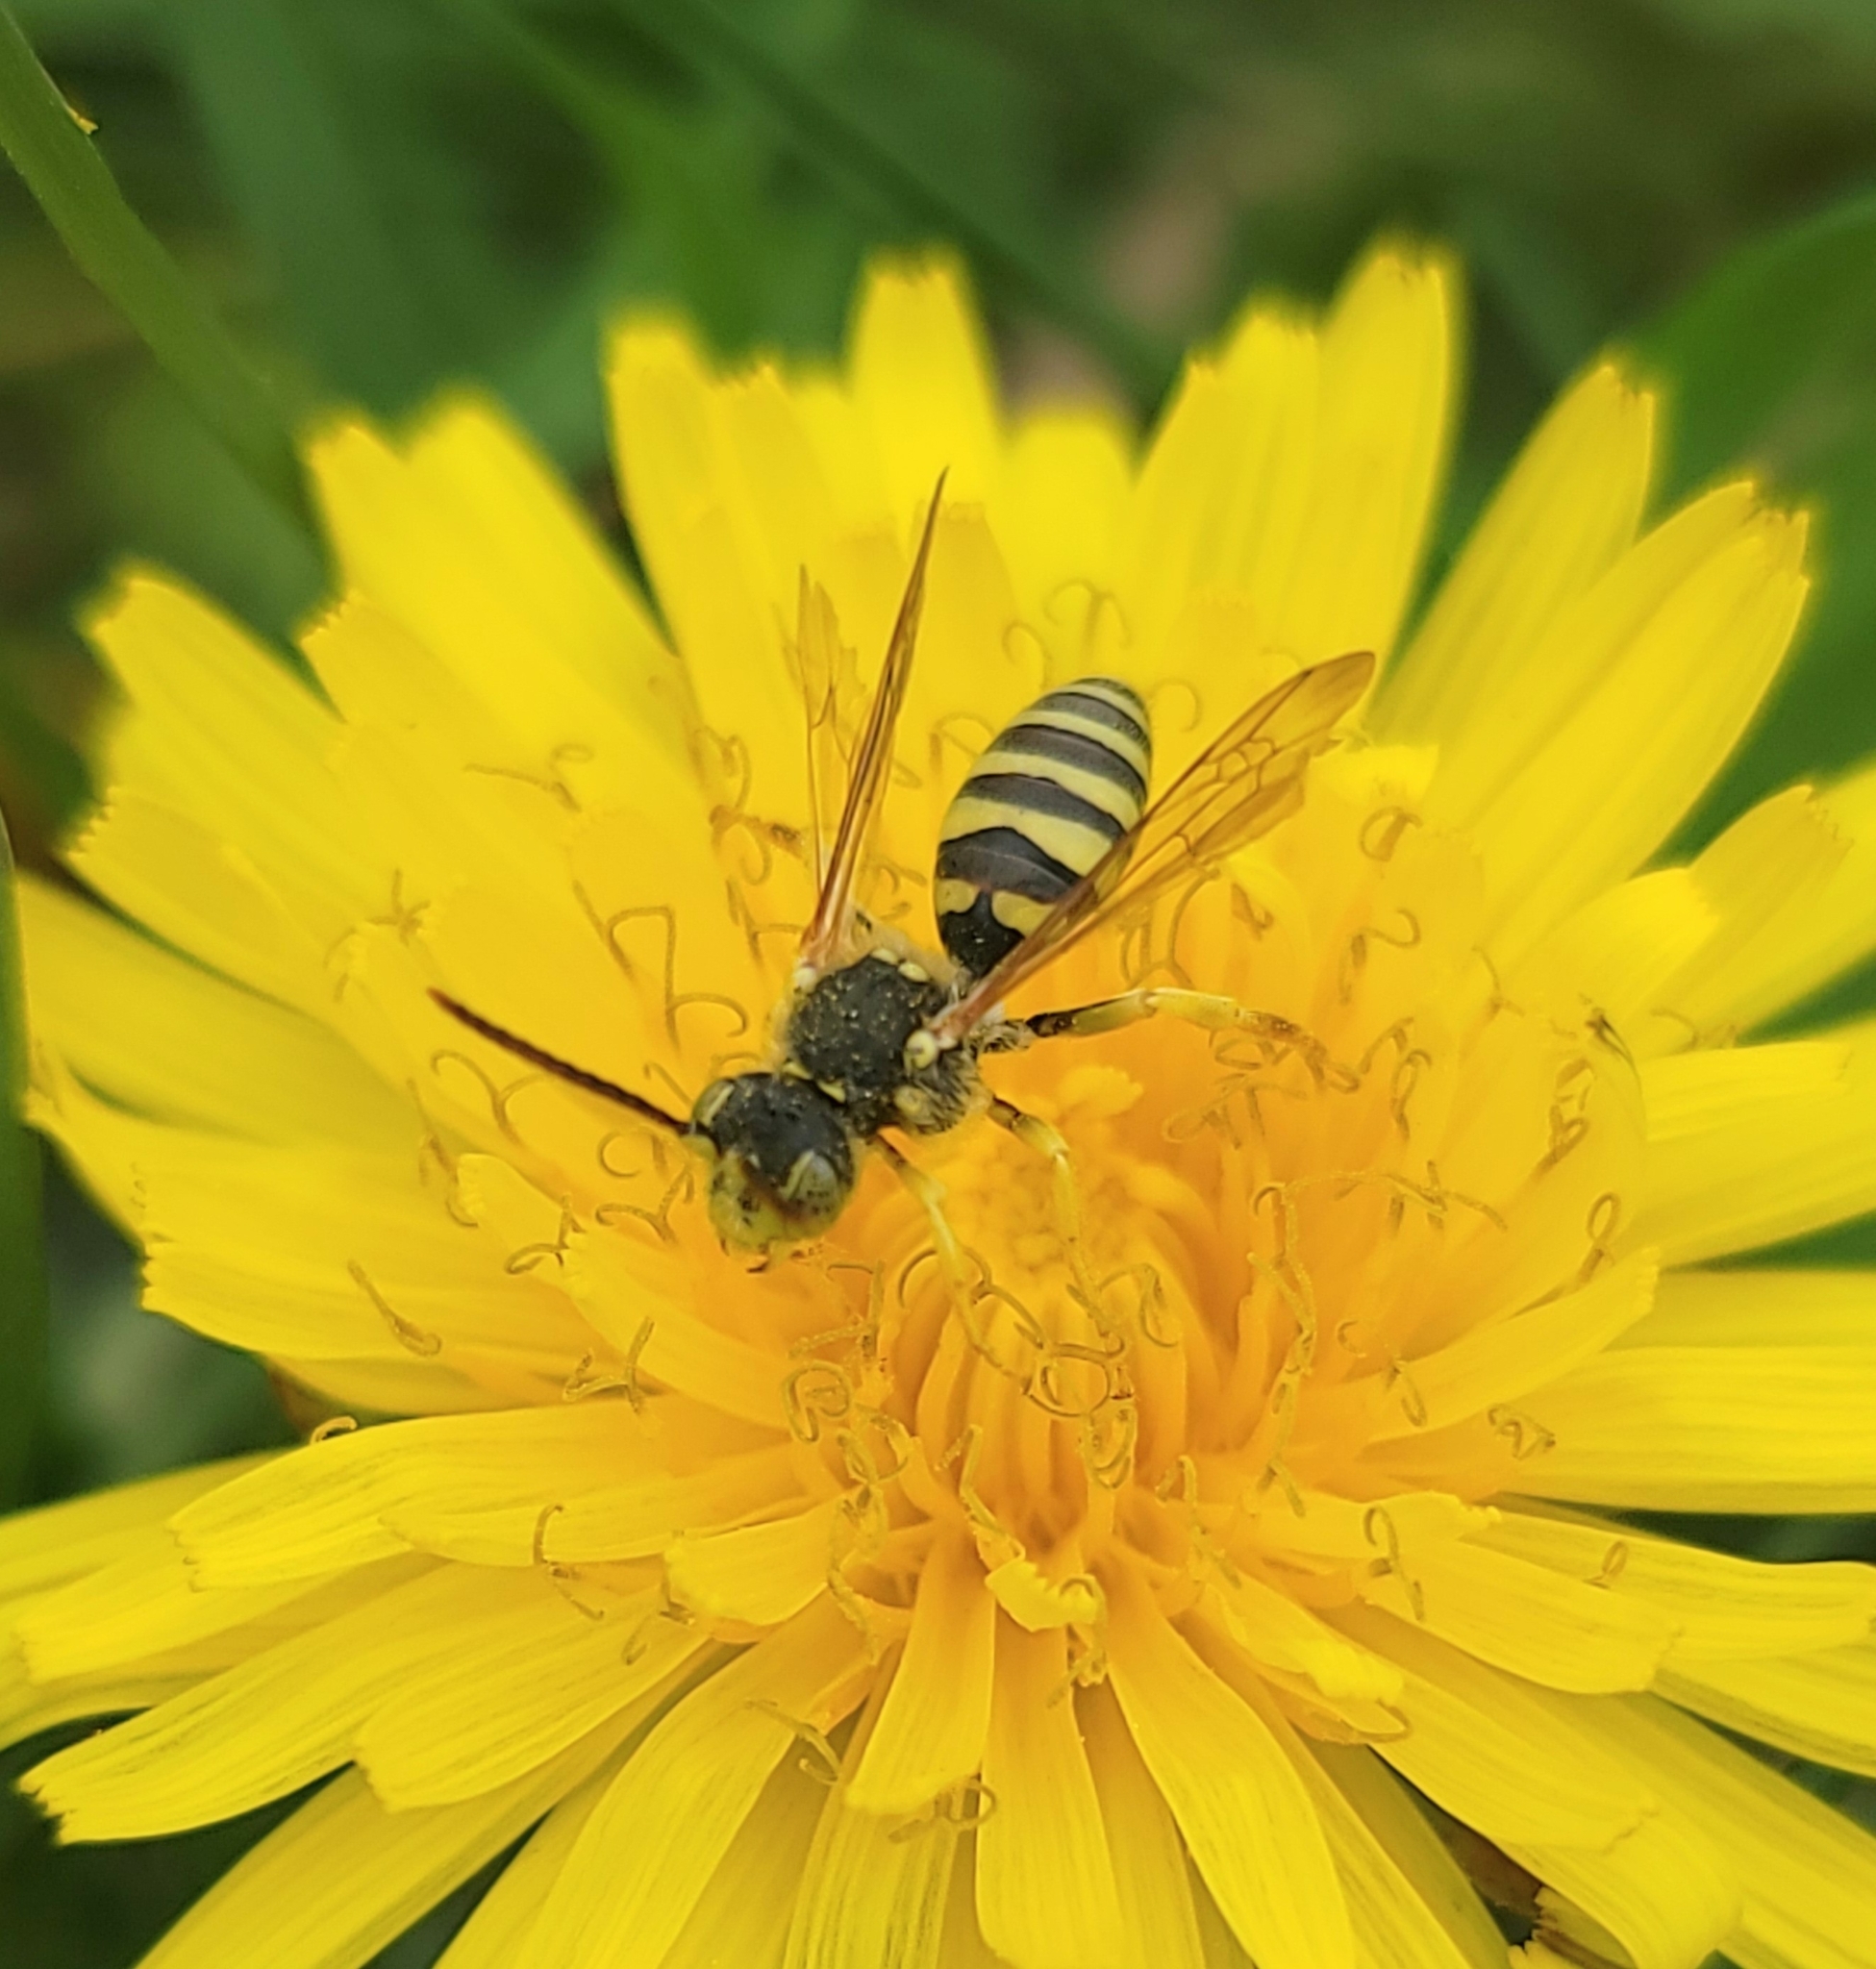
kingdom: Animalia
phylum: Arthropoda
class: Insecta
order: Hymenoptera
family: Apidae
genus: Nomada
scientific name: Nomada
